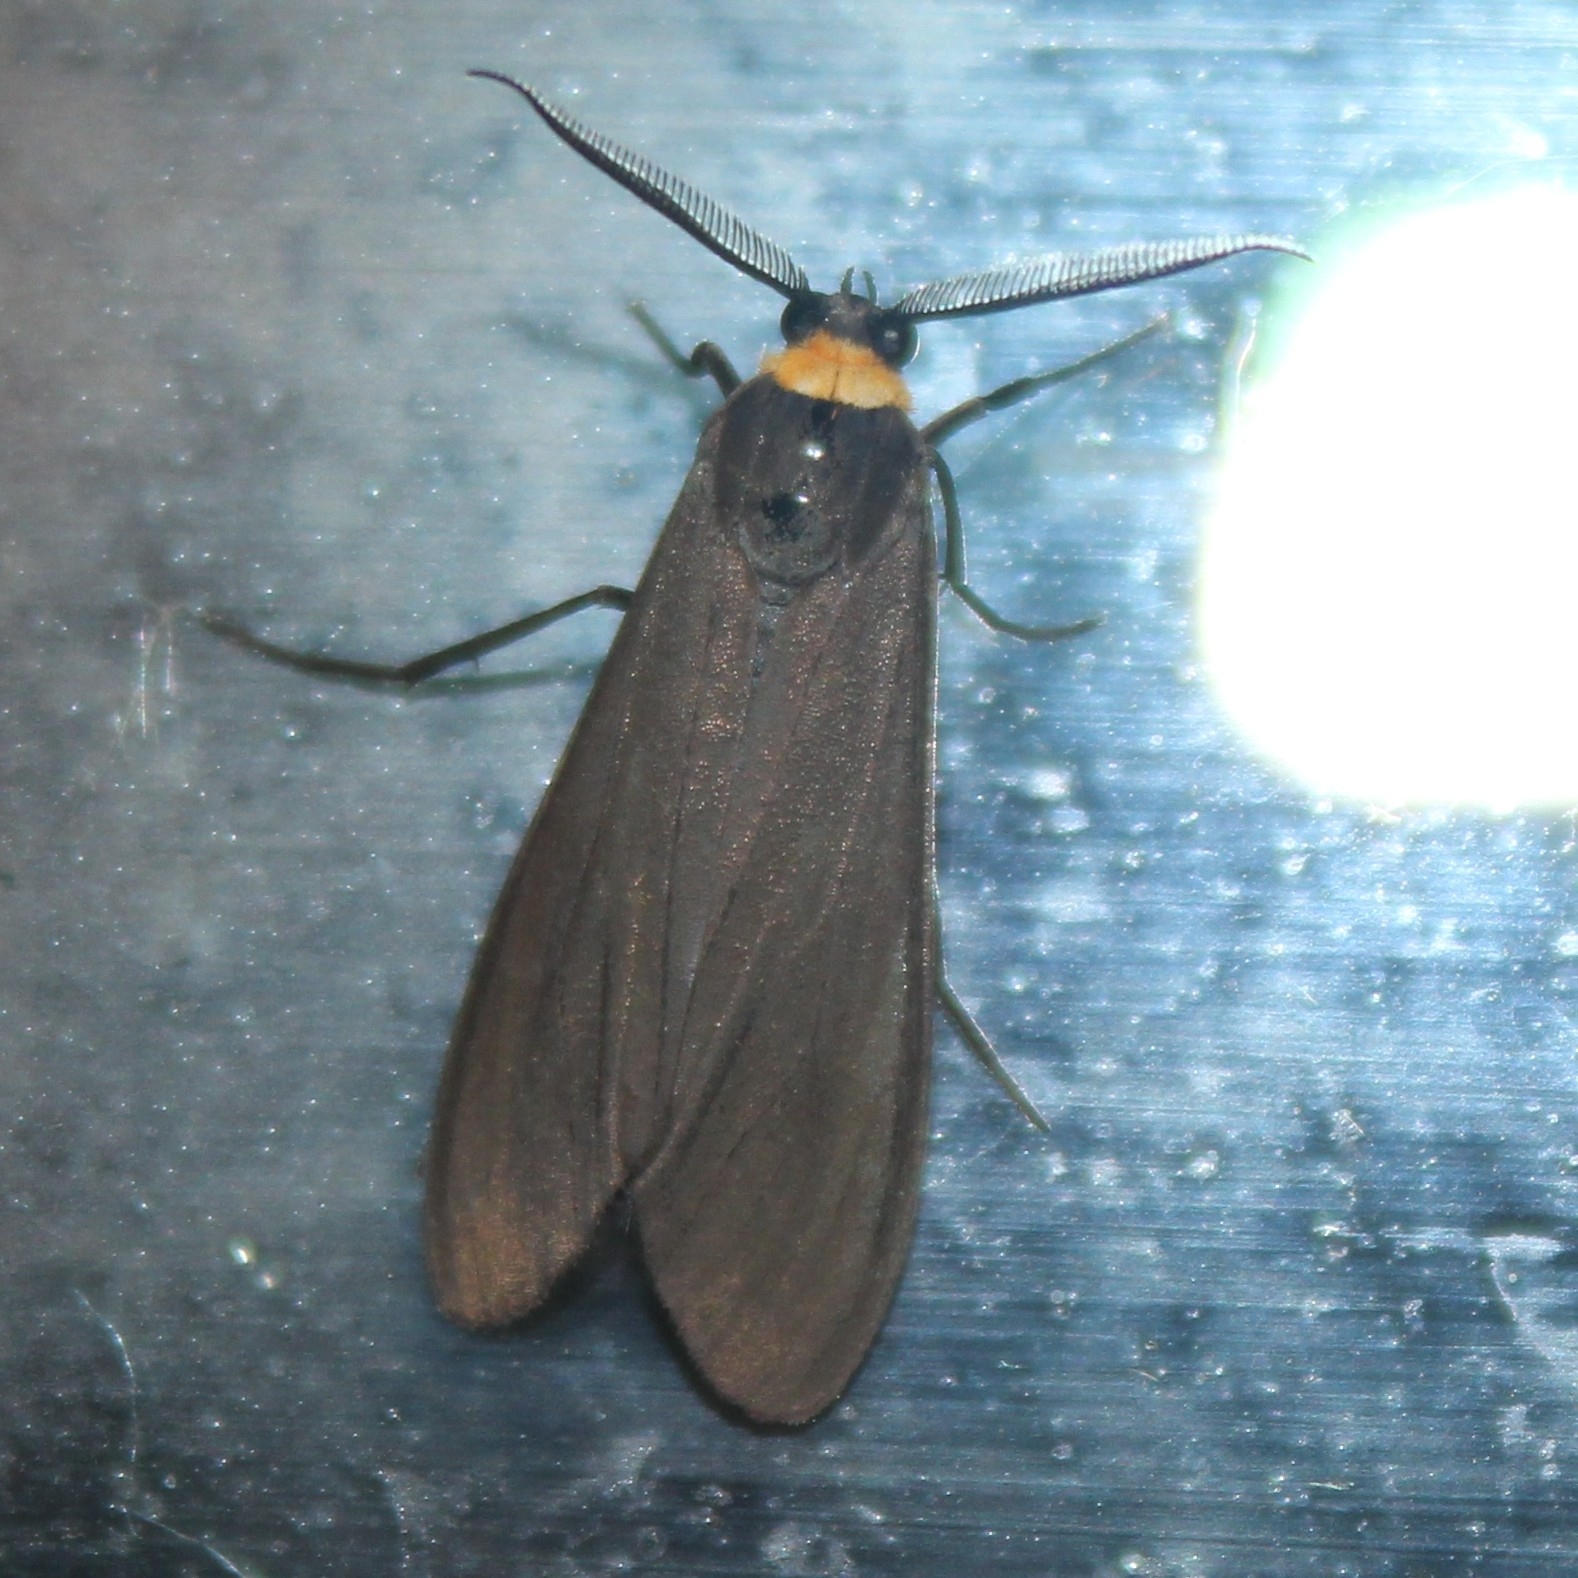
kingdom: Animalia
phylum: Arthropoda
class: Insecta
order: Lepidoptera
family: Erebidae
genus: Cisseps
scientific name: Cisseps fulvicollis
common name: Yellow-collared scape moth
